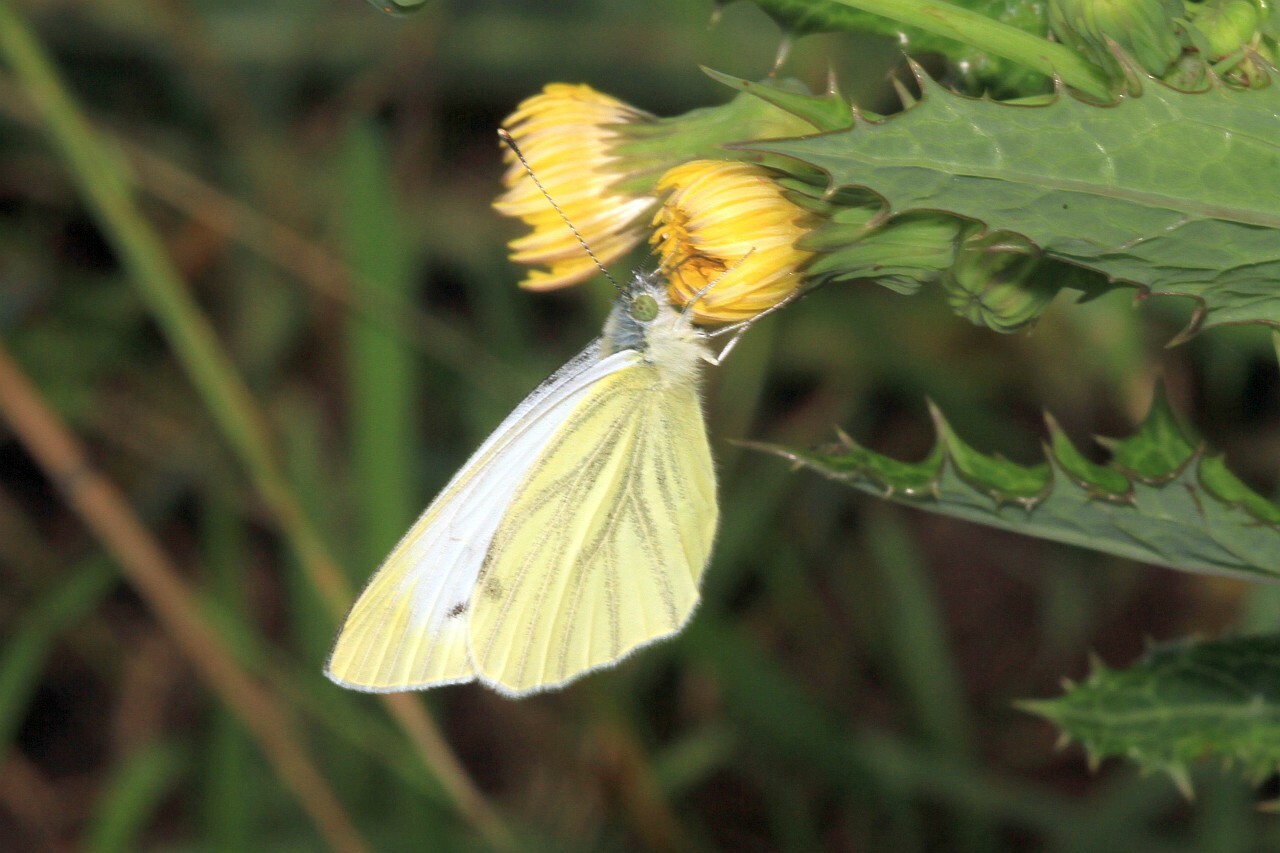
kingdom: Animalia
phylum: Arthropoda
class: Insecta
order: Lepidoptera
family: Pieridae
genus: Pieris
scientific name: Pieris napi
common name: Green-veined white
